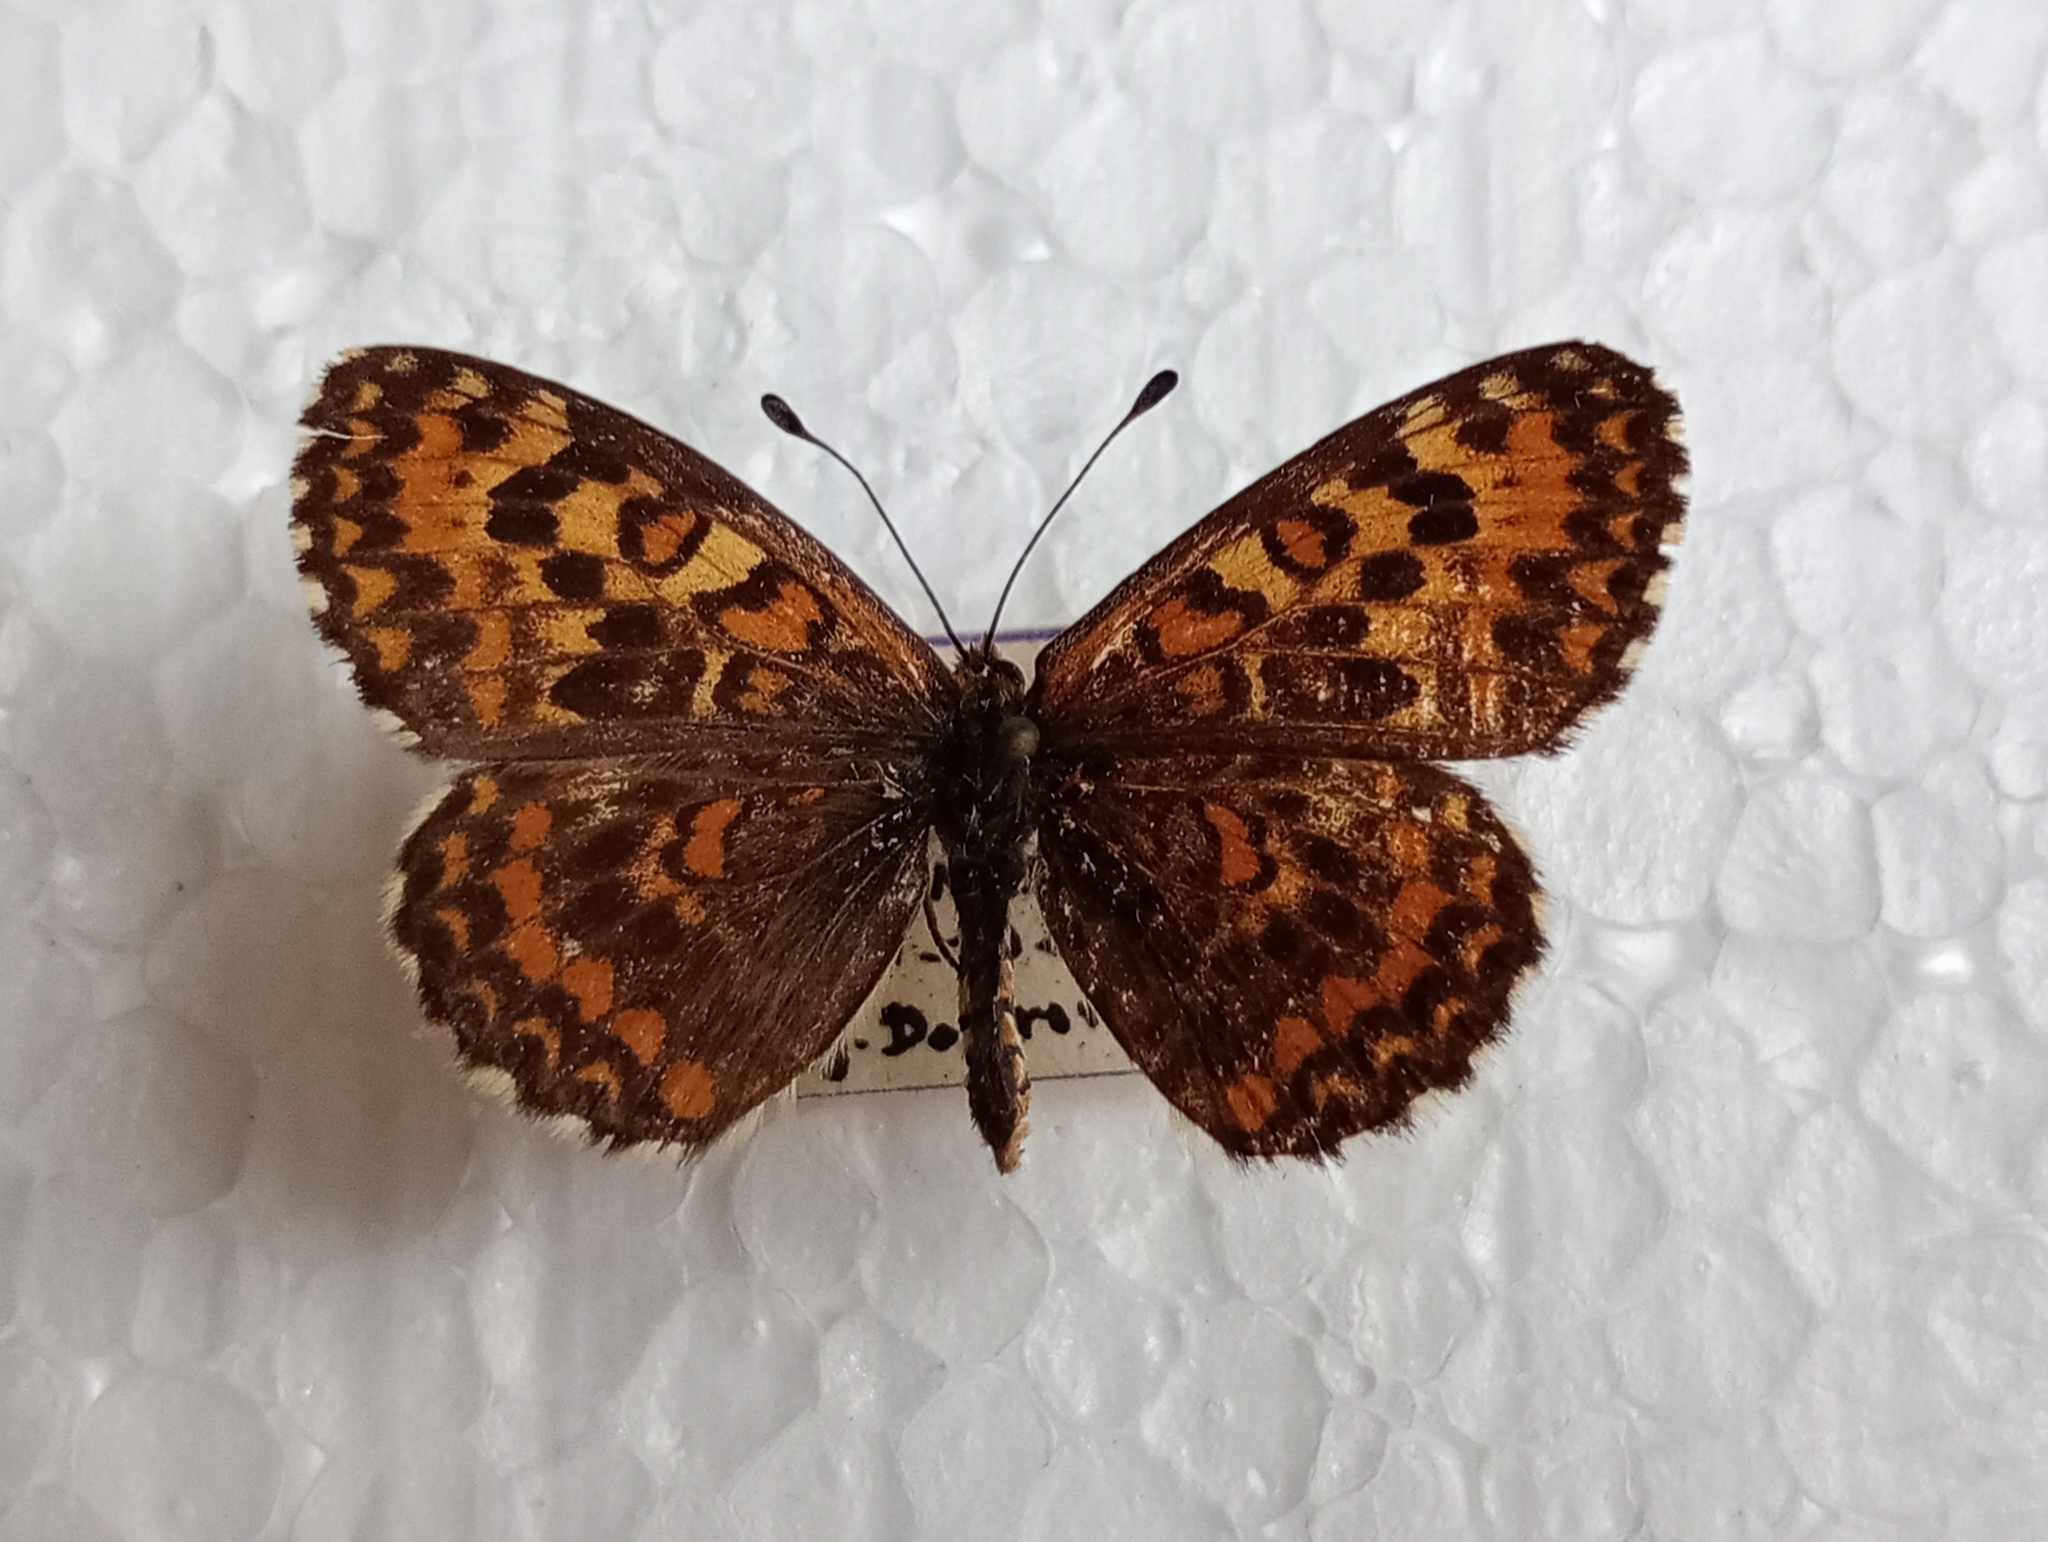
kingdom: Animalia
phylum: Arthropoda
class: Insecta
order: Lepidoptera
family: Nymphalidae
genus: Melitaea
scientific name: Melitaea trivia
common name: Lesser spotted fritillary
